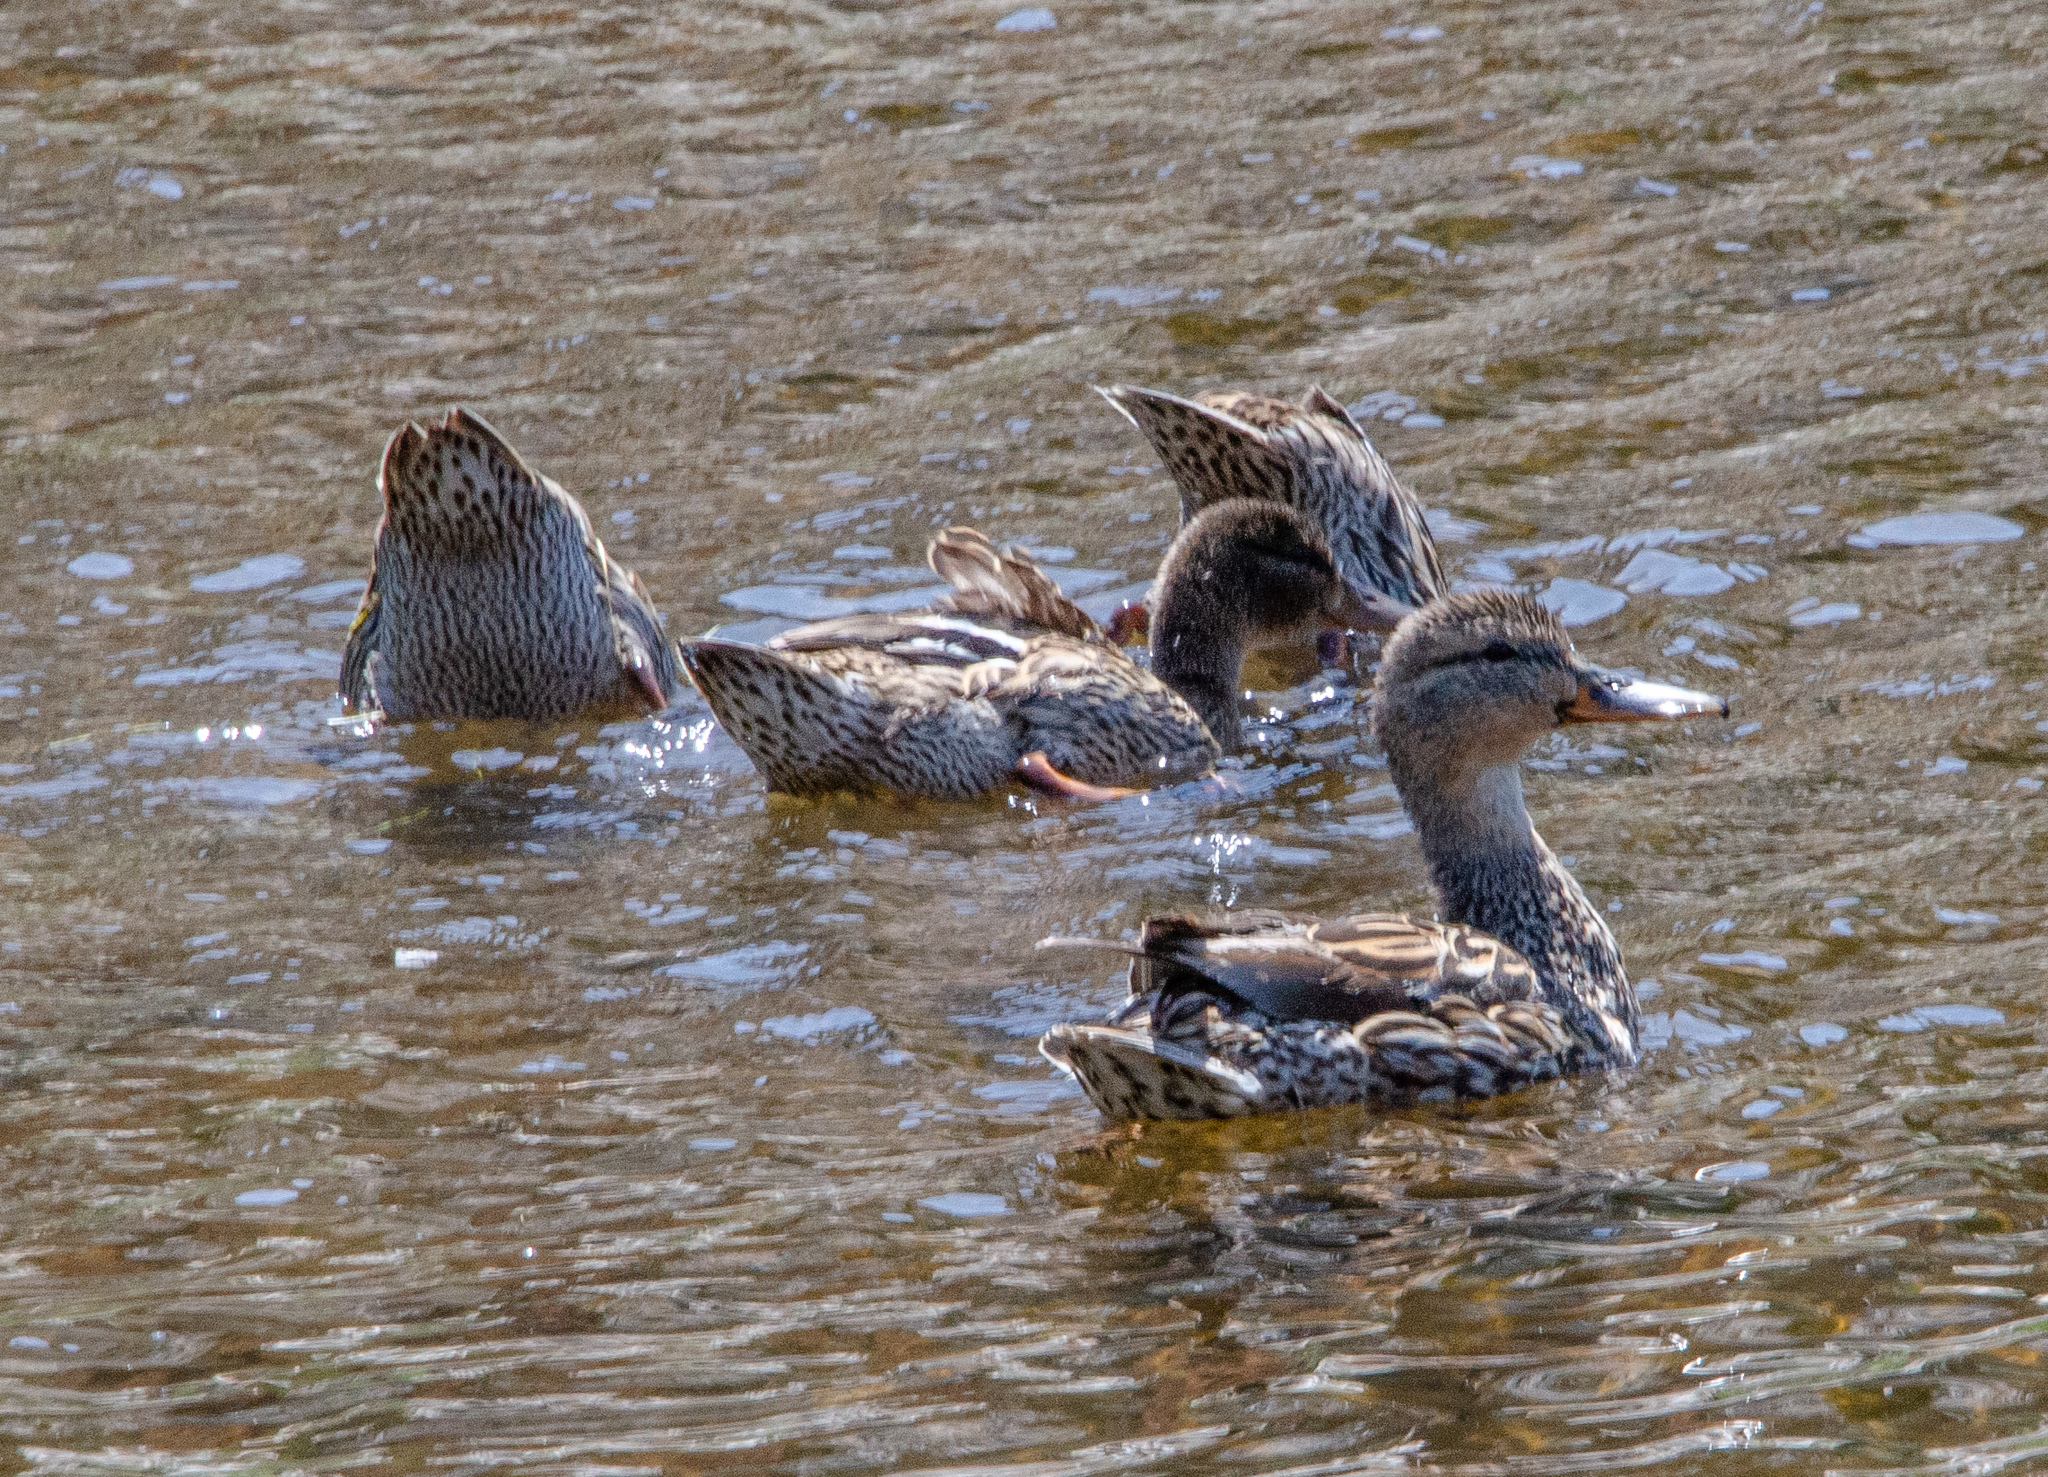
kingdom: Animalia
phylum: Chordata
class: Aves
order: Anseriformes
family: Anatidae
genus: Anas
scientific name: Anas platyrhynchos
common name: Mallard
